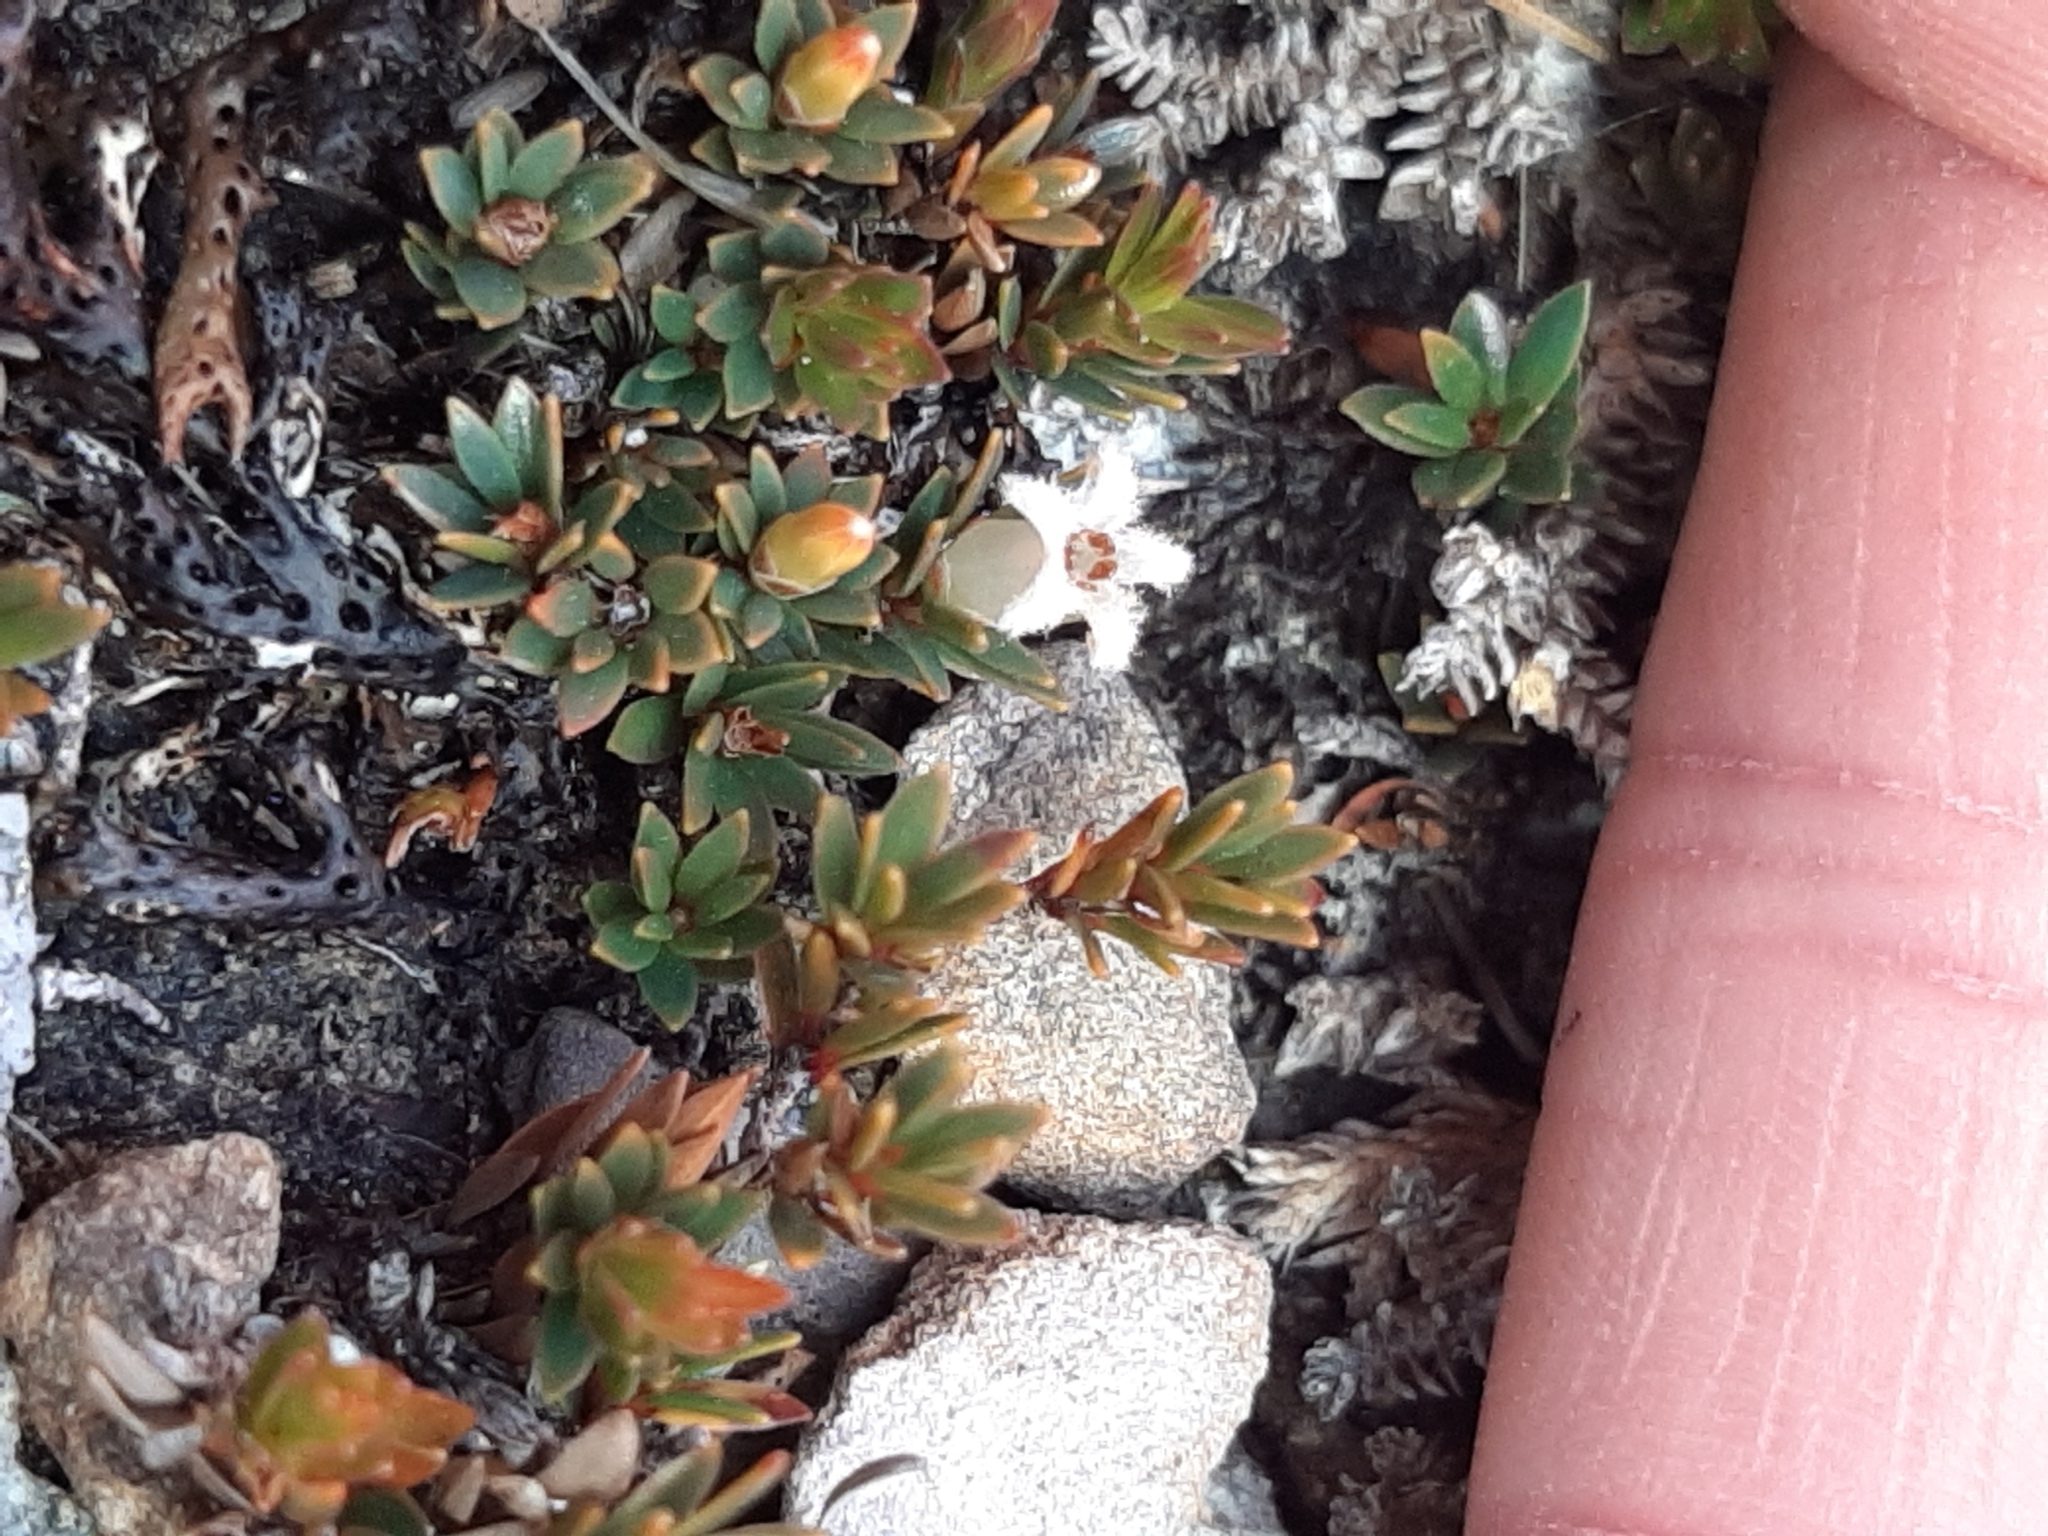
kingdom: Plantae
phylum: Tracheophyta
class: Magnoliopsida
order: Ericales
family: Ericaceae
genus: Pentachondra
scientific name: Pentachondra pumila
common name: Carpet-heath
